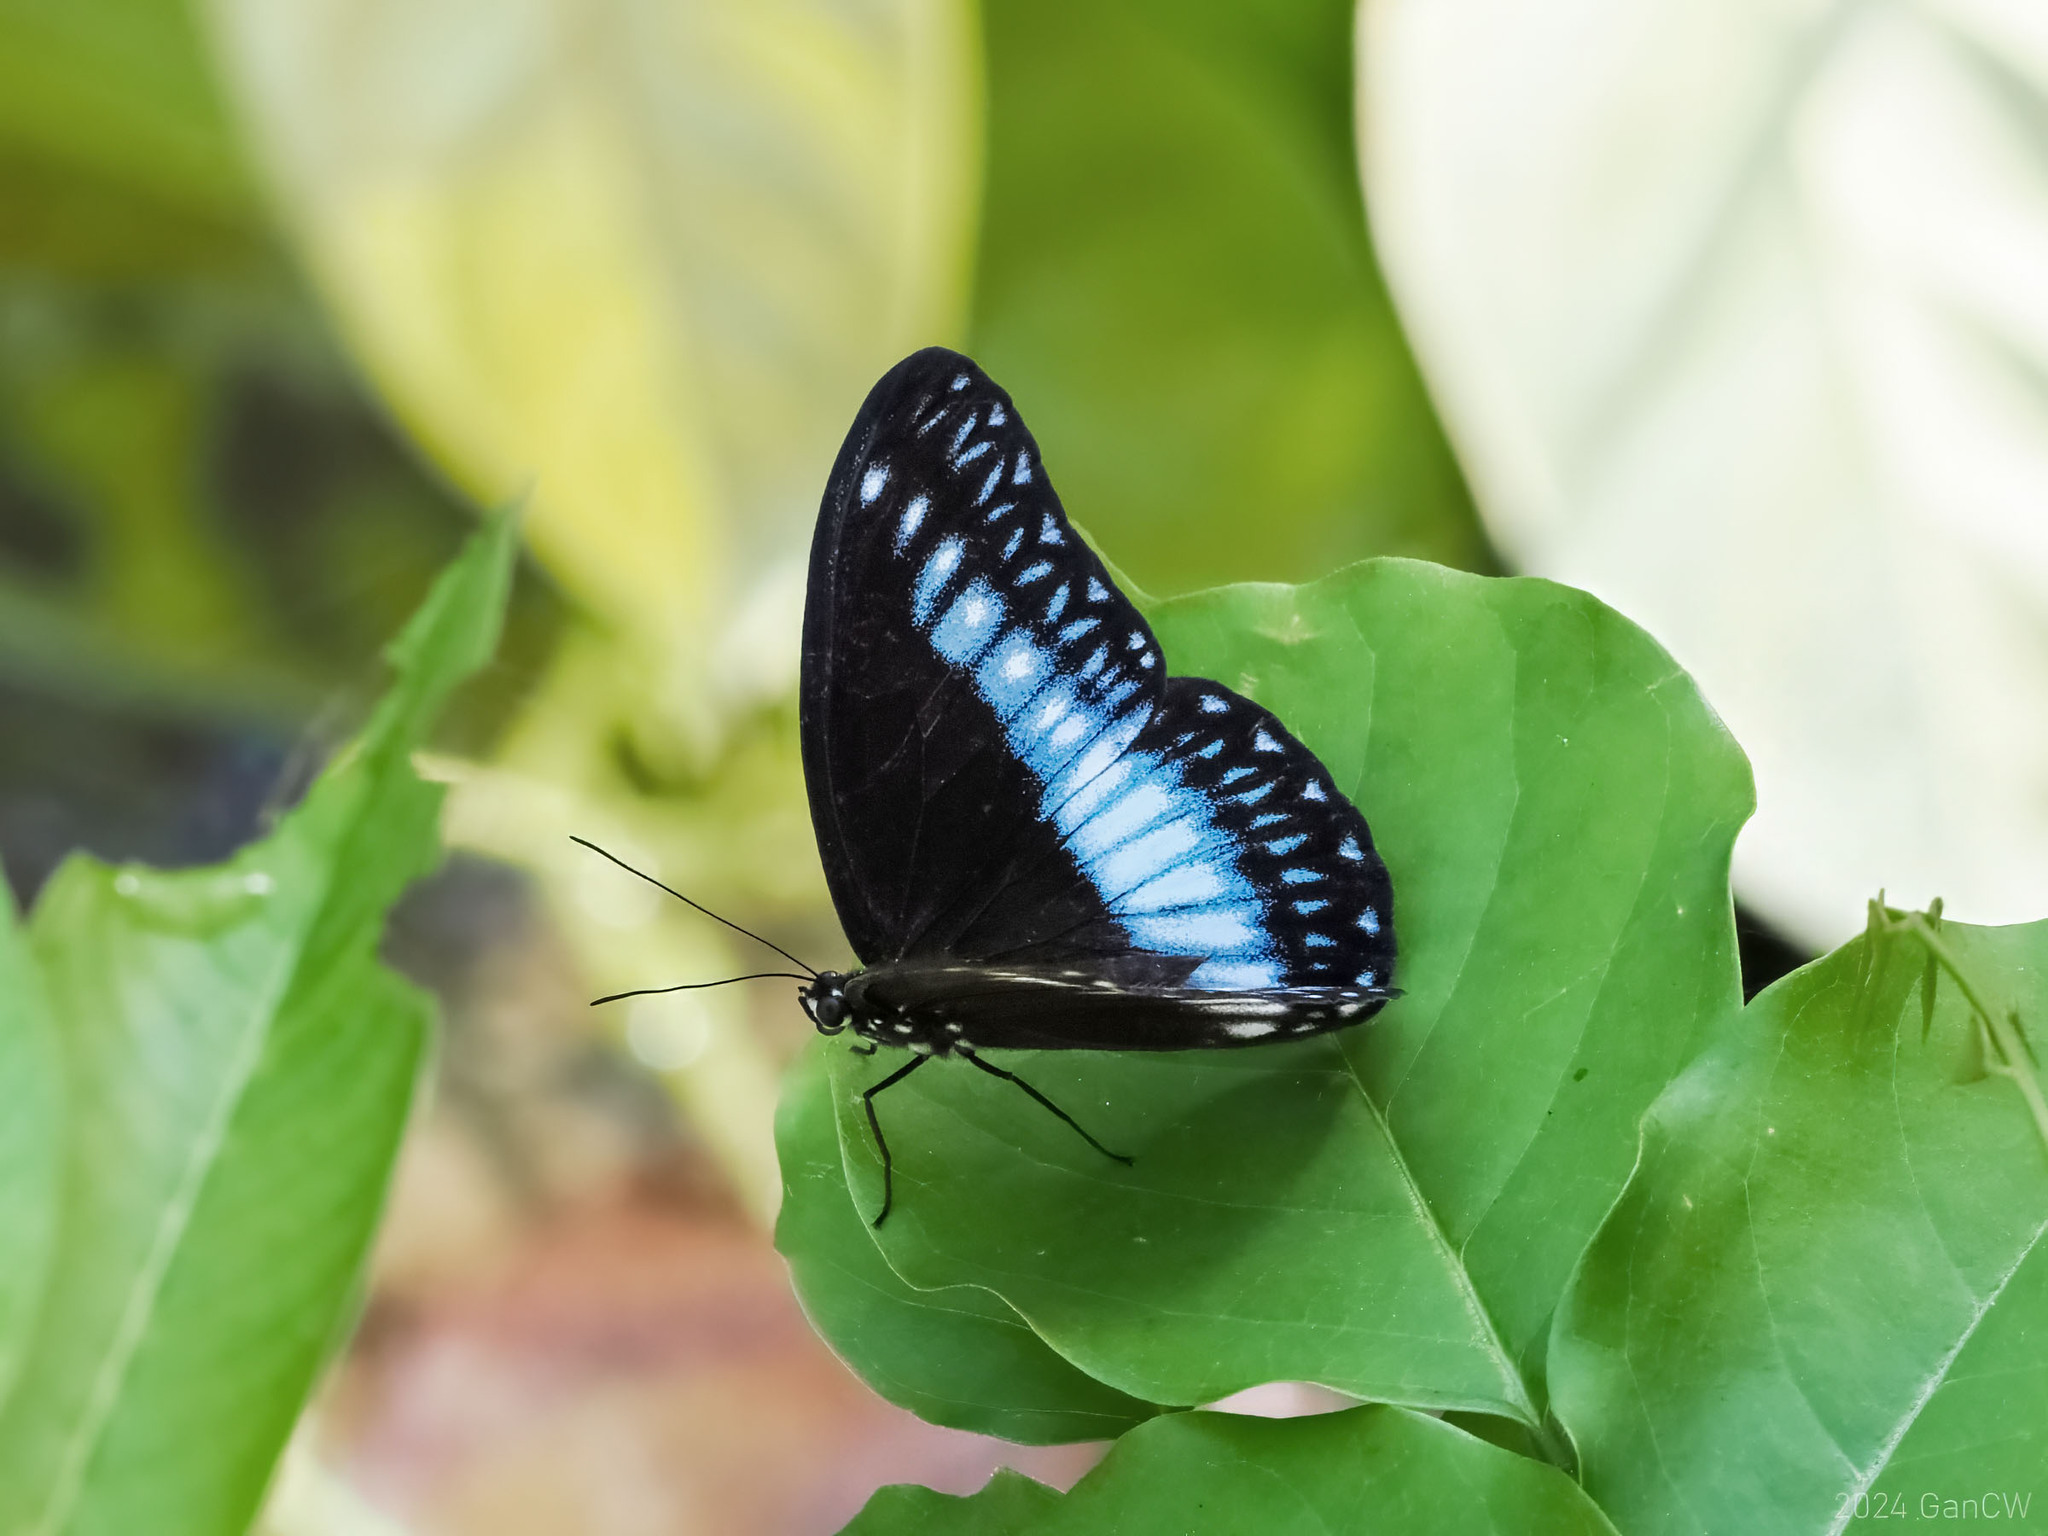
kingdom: Animalia
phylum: Arthropoda
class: Insecta
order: Lepidoptera
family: Nymphalidae
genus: Zethera
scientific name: Zethera pimplea
